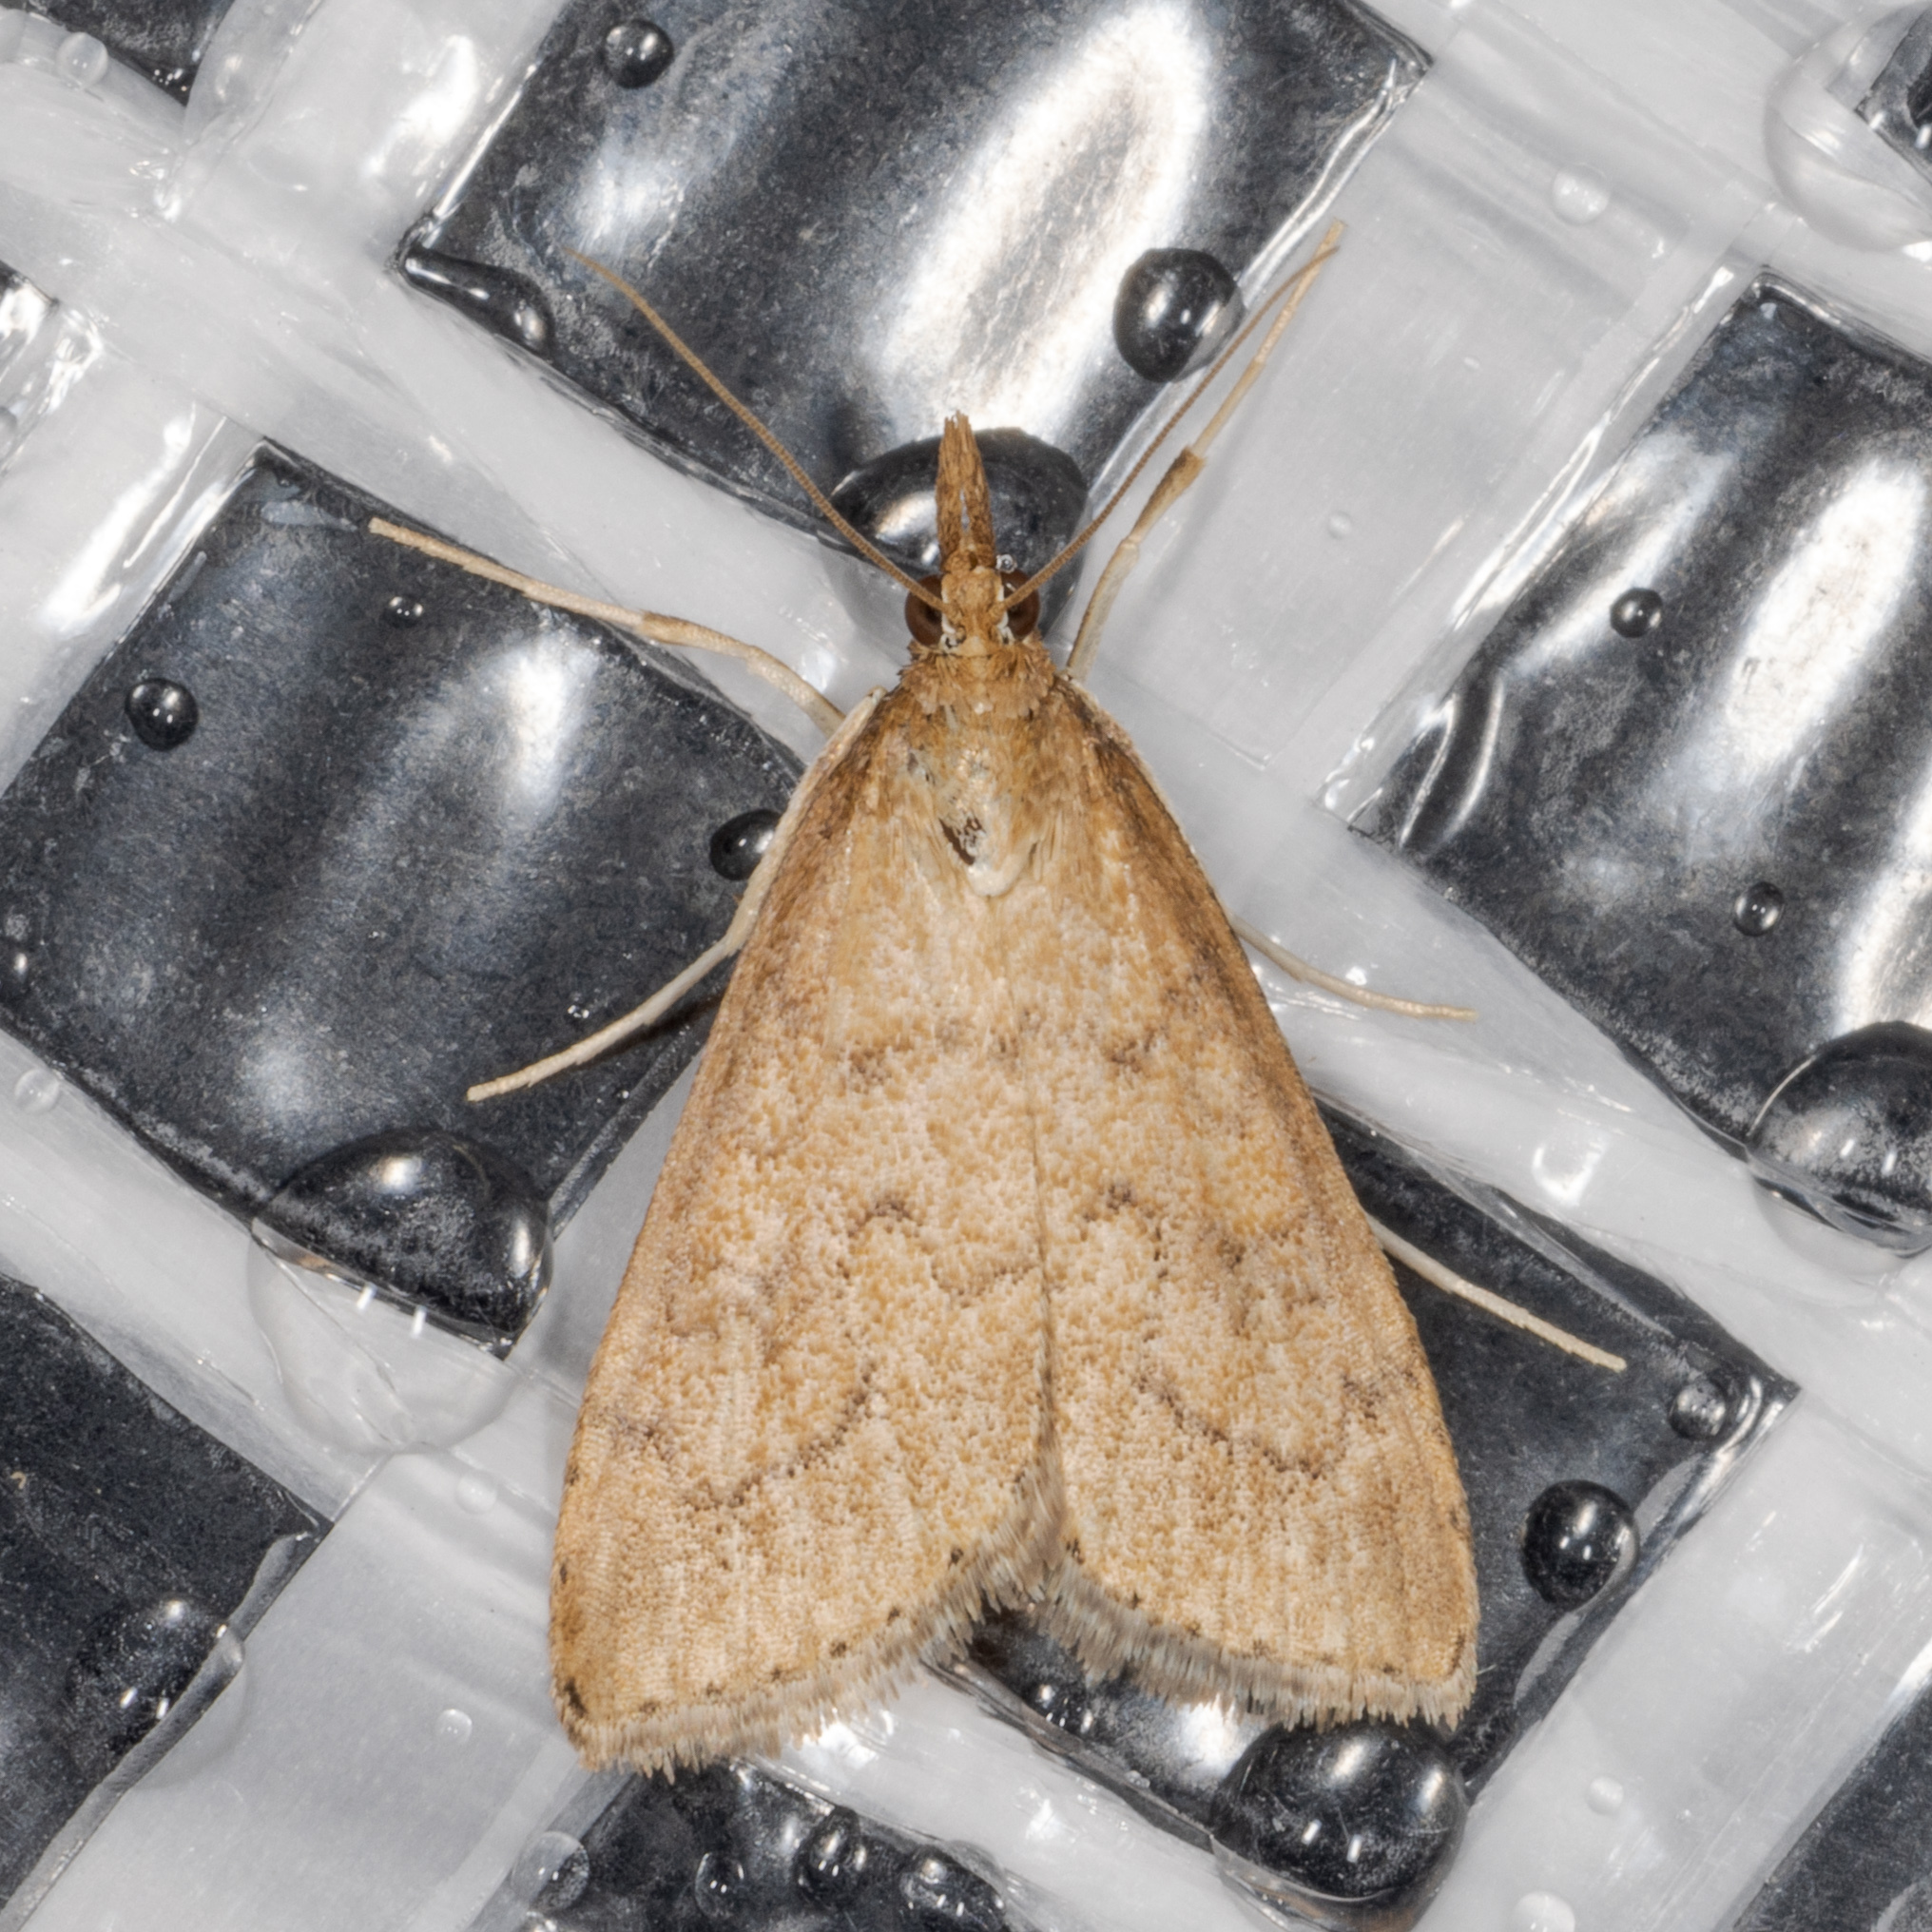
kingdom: Animalia
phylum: Arthropoda
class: Insecta
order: Lepidoptera
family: Crambidae
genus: Udea
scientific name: Udea rubigalis
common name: Celery leaftier moth
